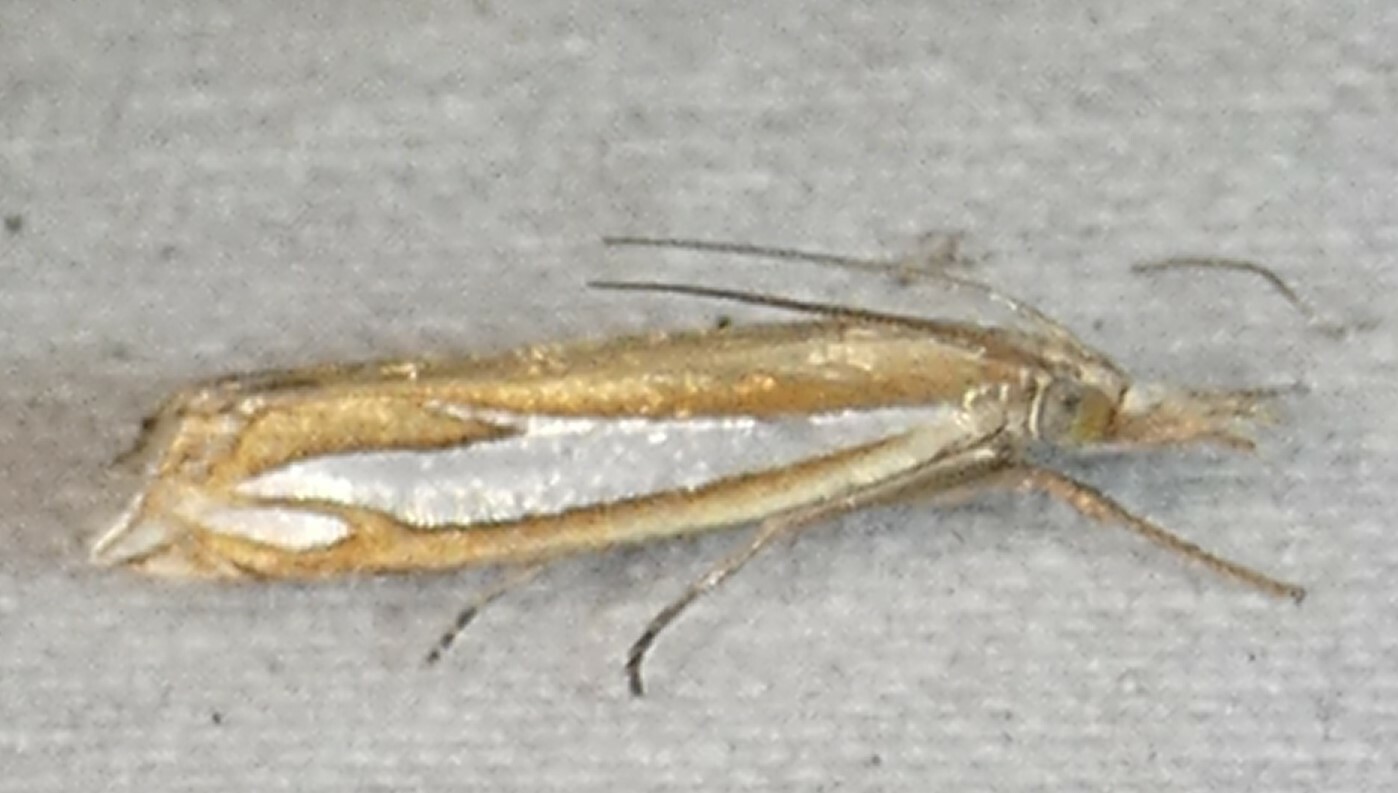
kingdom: Animalia
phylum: Arthropoda
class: Insecta
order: Lepidoptera
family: Crambidae
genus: Crambus
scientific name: Crambus satrapellus
